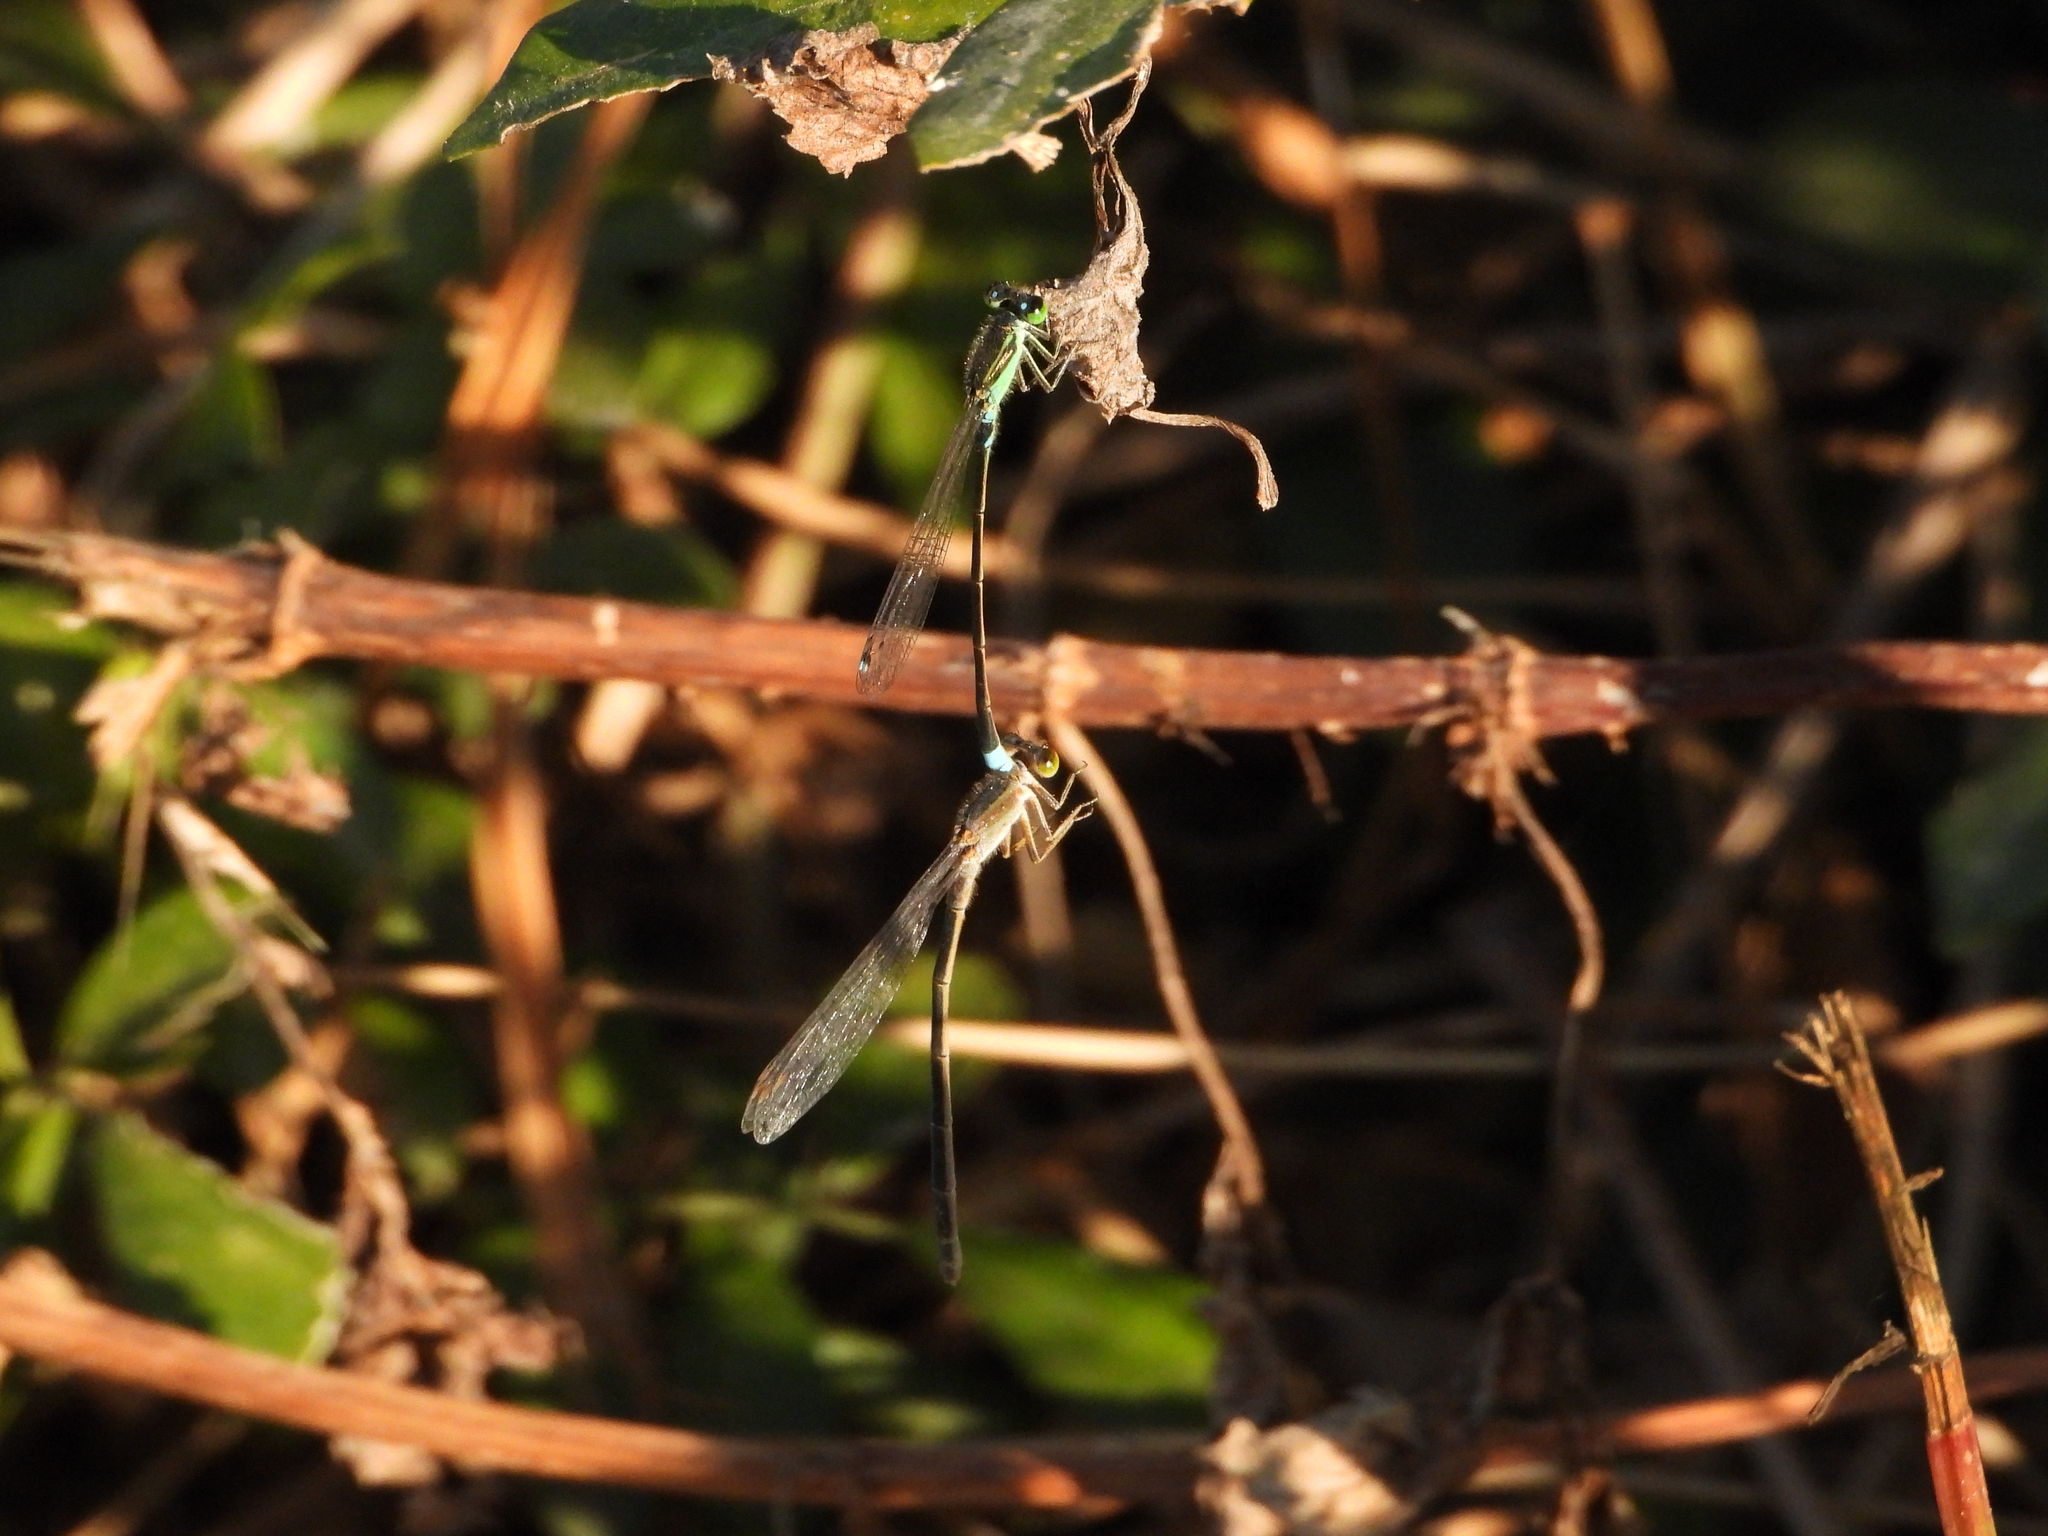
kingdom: Animalia
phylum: Arthropoda
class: Insecta
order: Odonata
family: Coenagrionidae
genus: Ischnura
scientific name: Ischnura senegalensis
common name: Tropical bluetail
